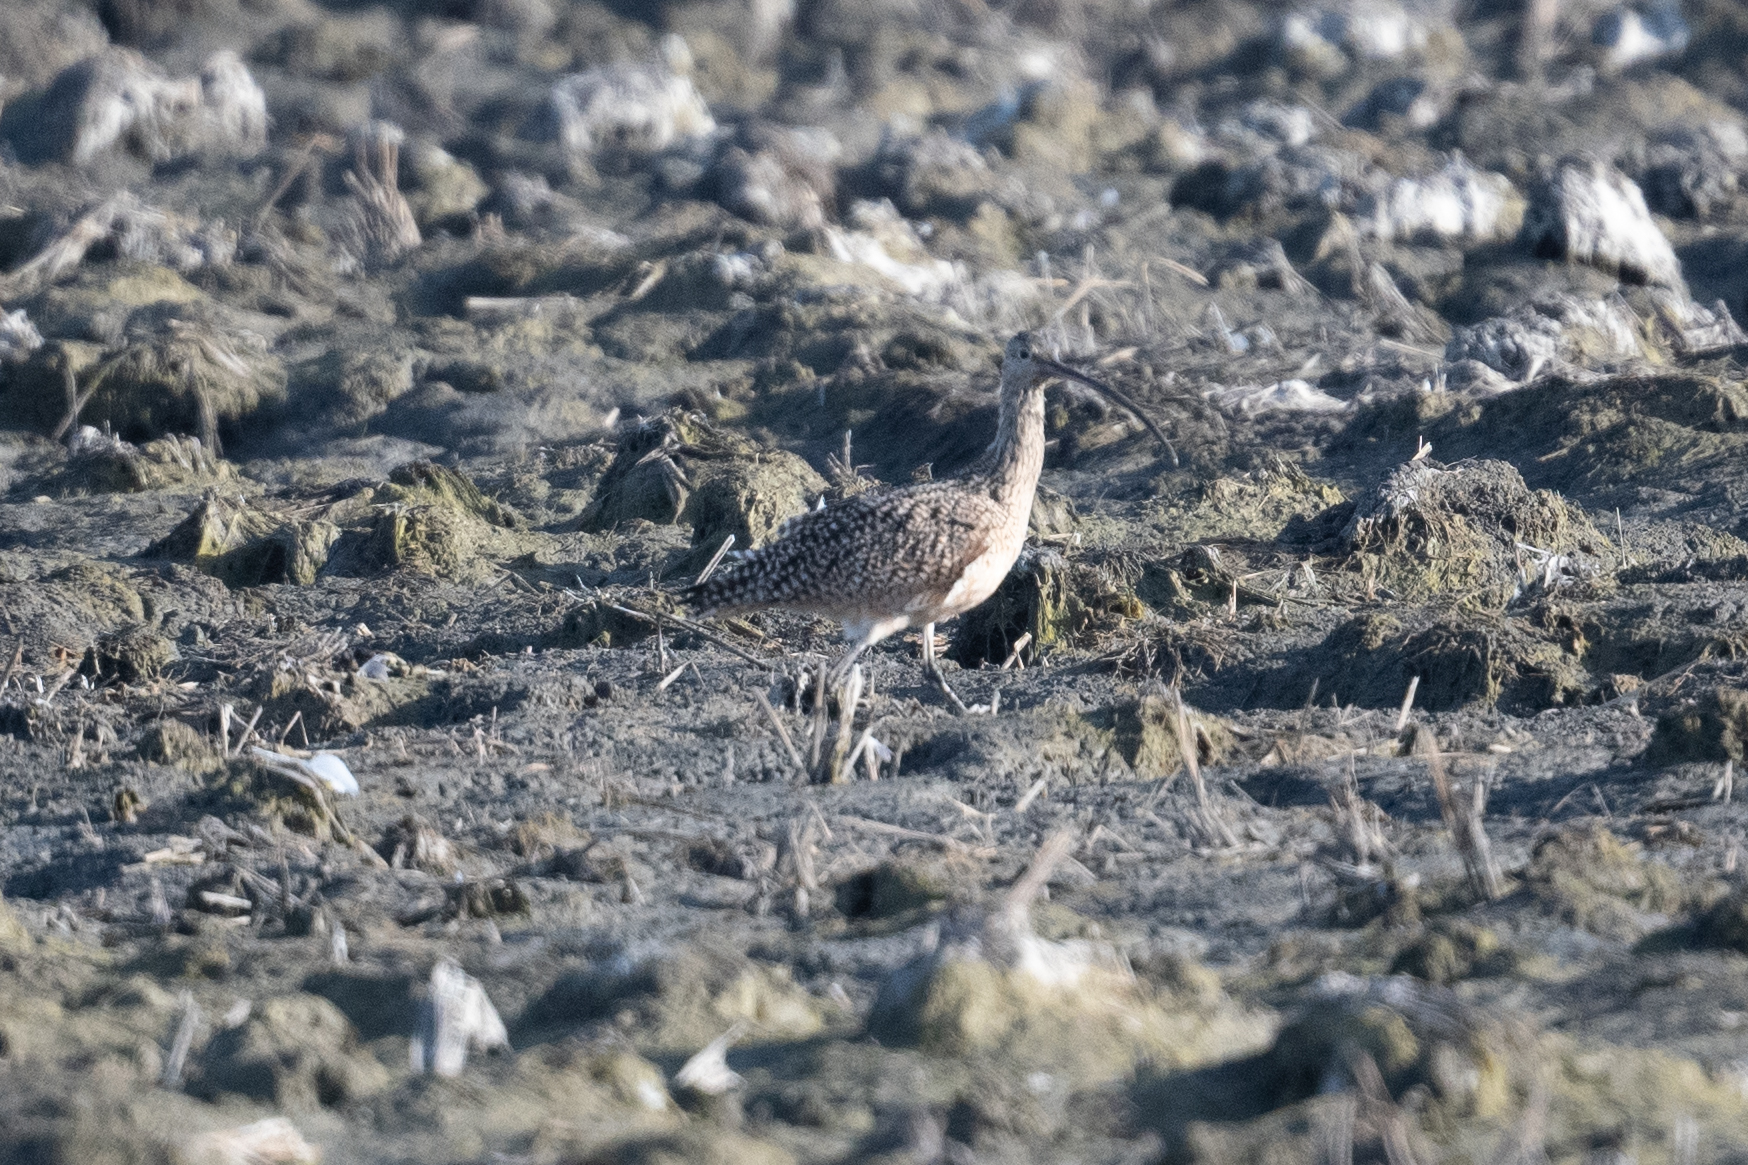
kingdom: Animalia
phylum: Chordata
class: Aves
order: Charadriiformes
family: Scolopacidae
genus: Numenius
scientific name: Numenius americanus
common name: Long-billed curlew
